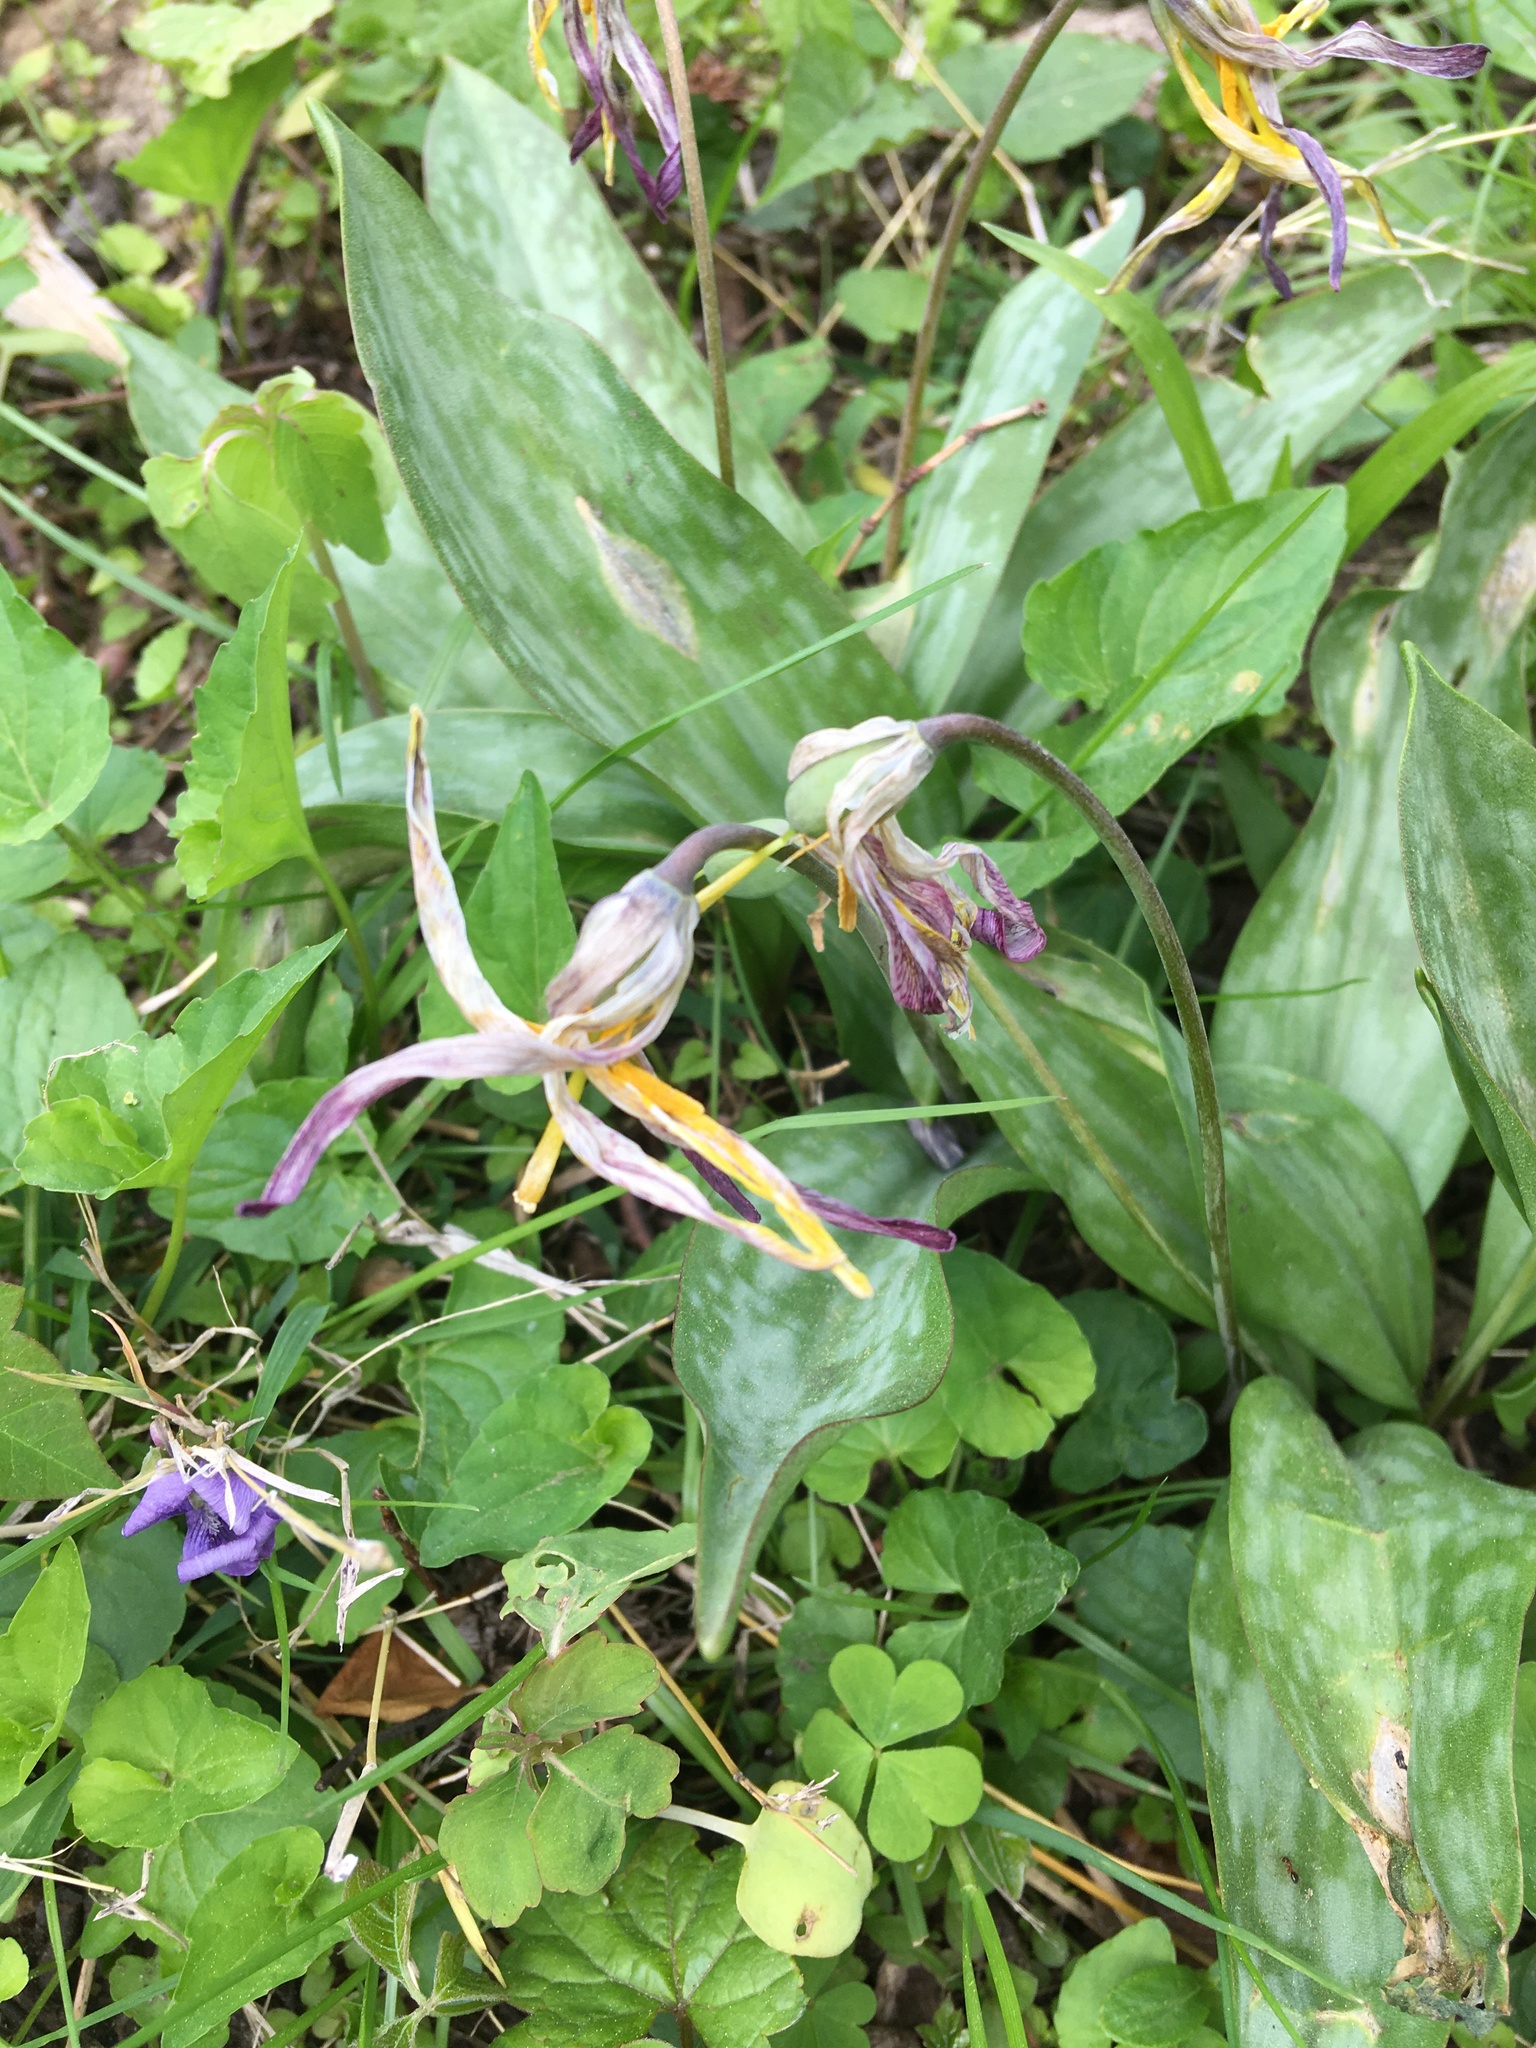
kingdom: Plantae
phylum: Tracheophyta
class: Liliopsida
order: Liliales
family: Liliaceae
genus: Erythronium
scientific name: Erythronium americanum
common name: Yellow adder's-tongue
